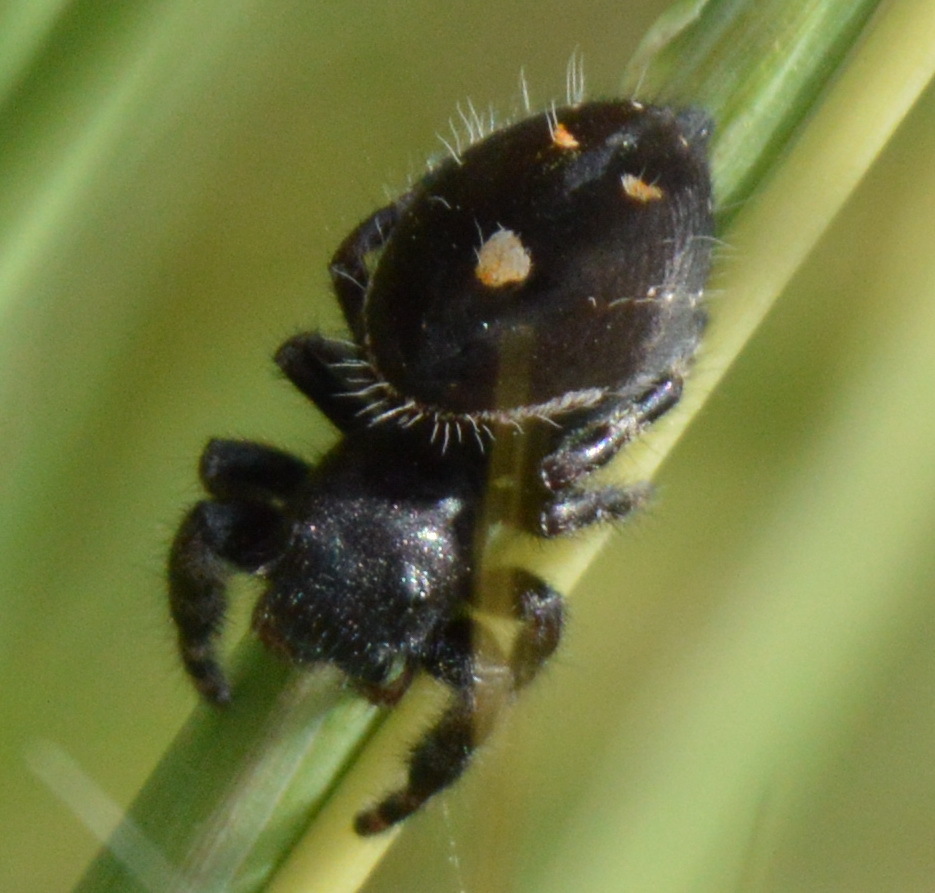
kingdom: Animalia
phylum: Arthropoda
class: Arachnida
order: Araneae
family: Salticidae
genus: Phidippus
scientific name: Phidippus audax
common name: Bold jumper
